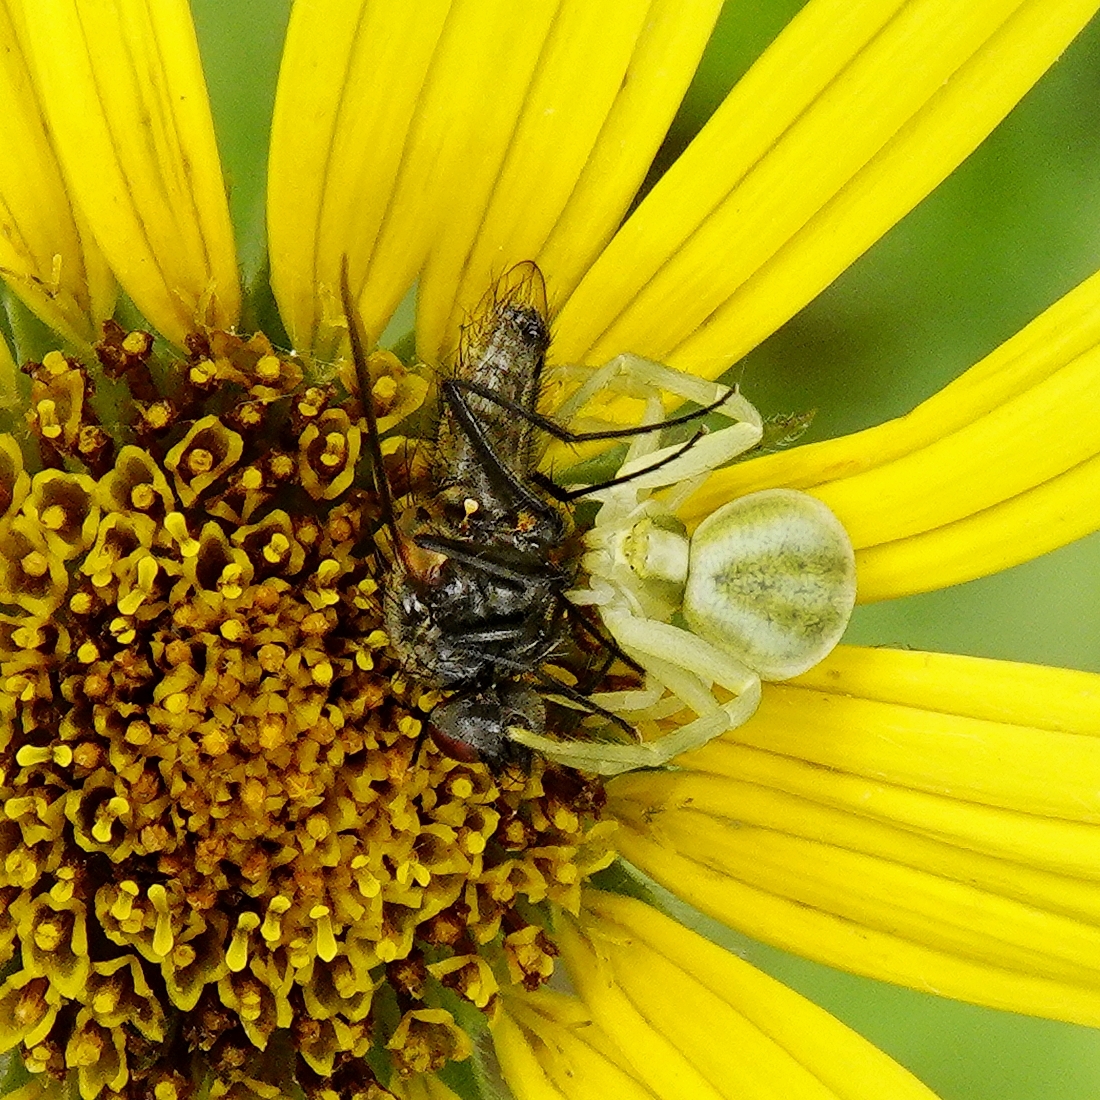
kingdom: Animalia
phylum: Arthropoda
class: Arachnida
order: Araneae
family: Thomisidae
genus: Misumena
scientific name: Misumena vatia
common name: Goldenrod crab spider
